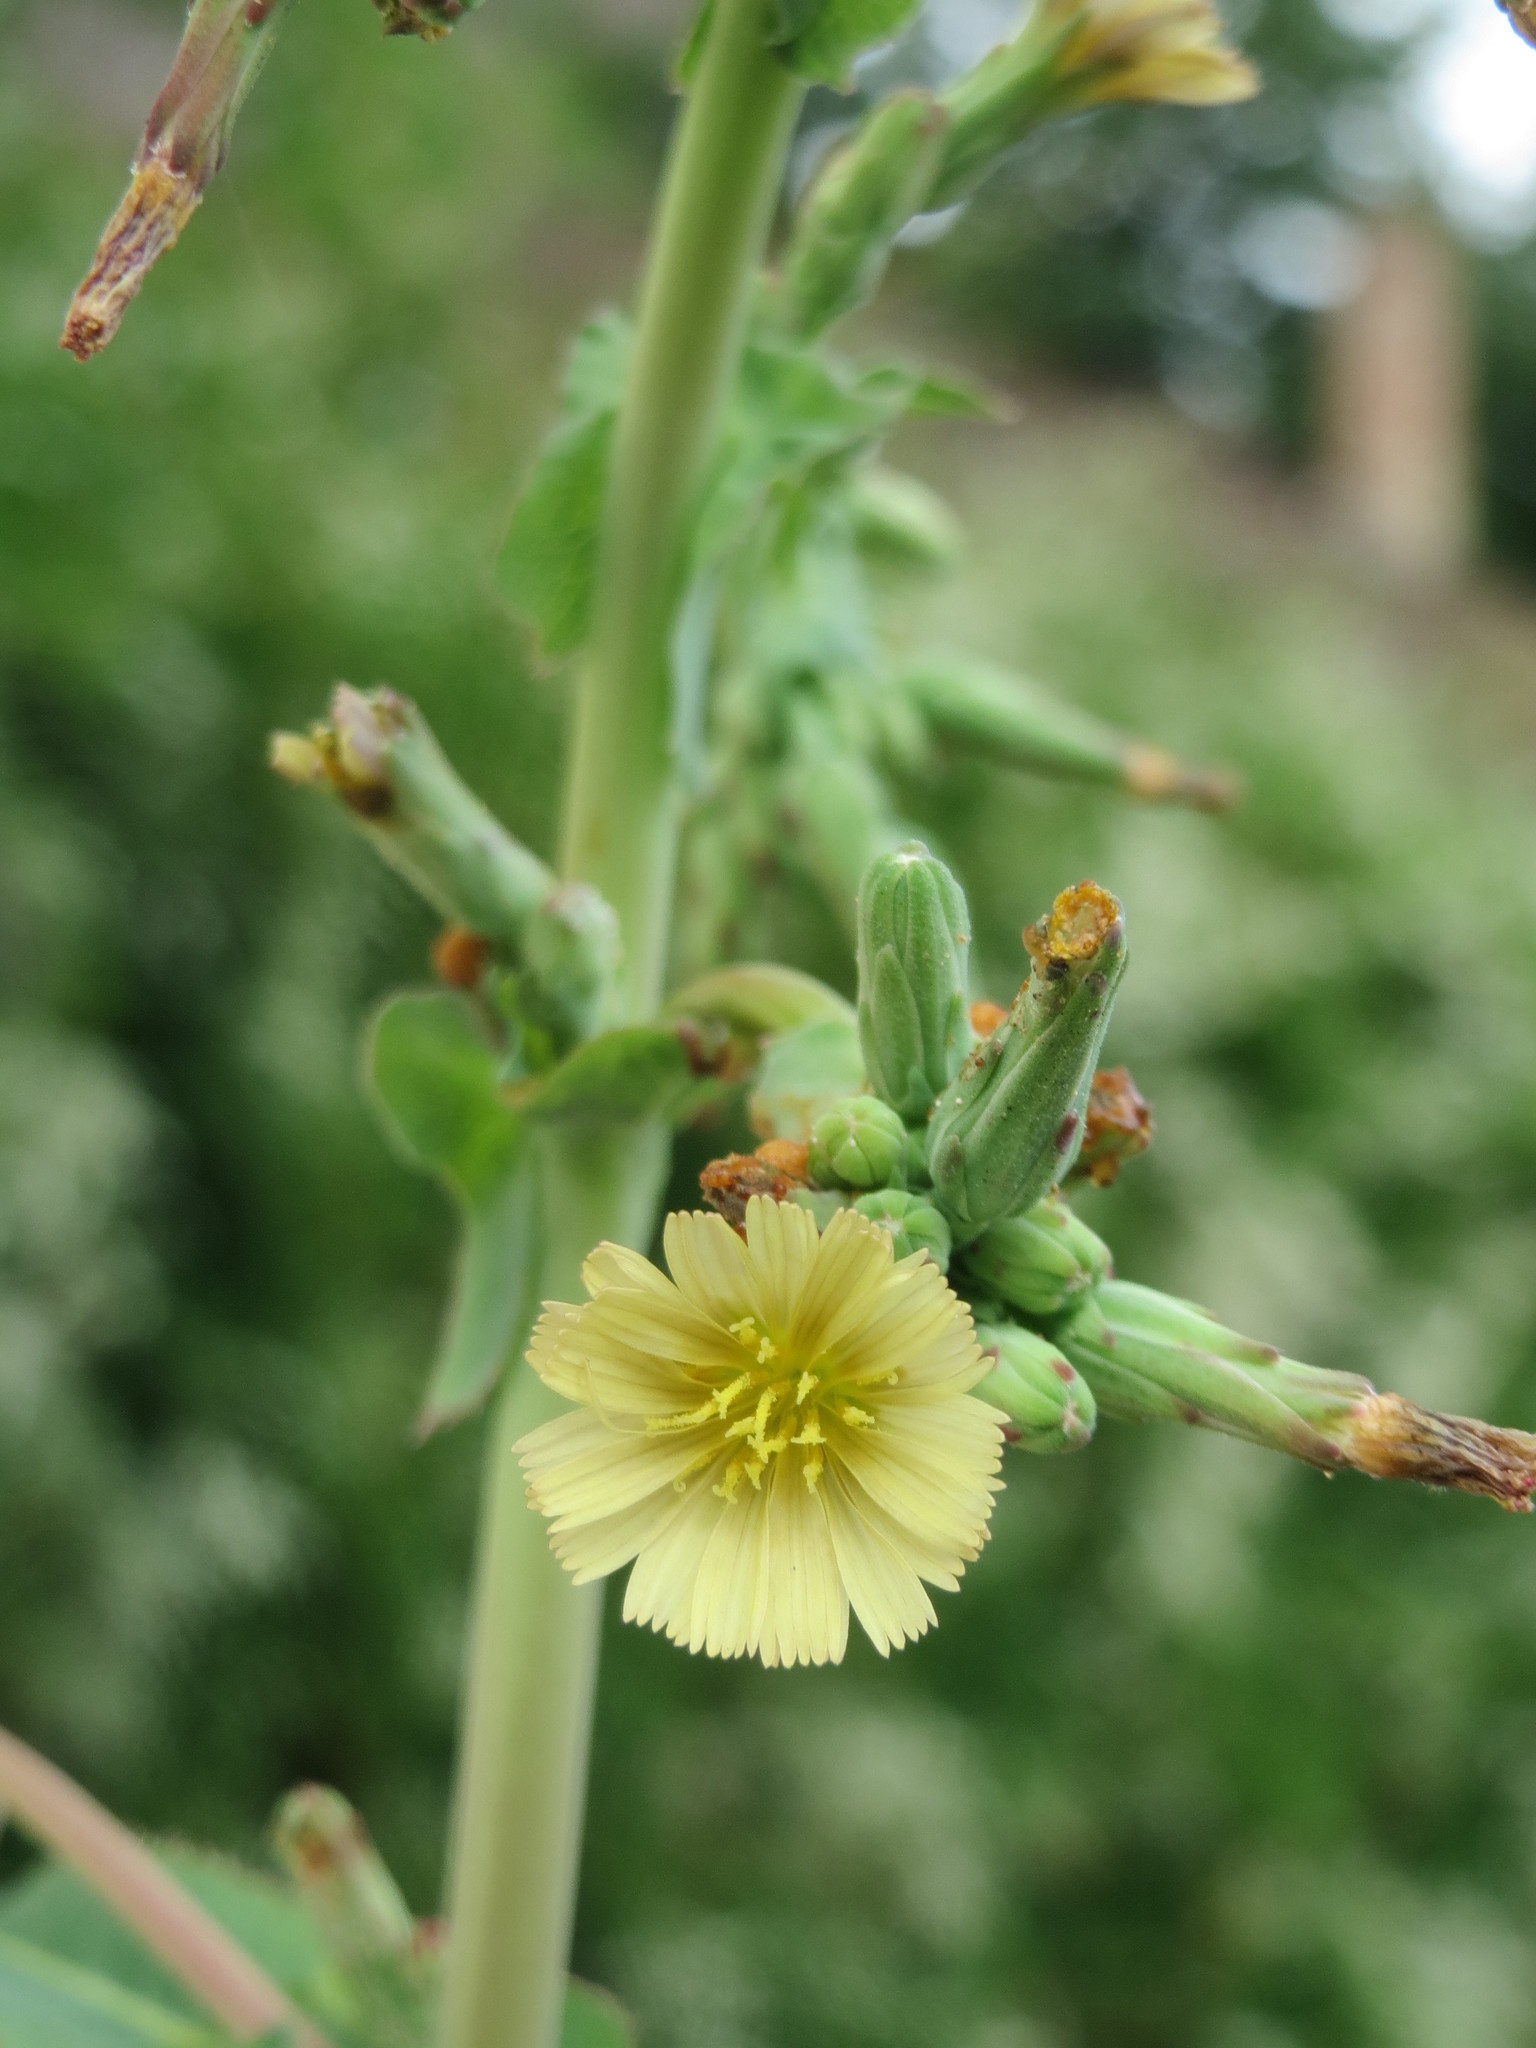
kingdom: Plantae
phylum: Tracheophyta
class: Magnoliopsida
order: Asterales
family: Asteraceae
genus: Lactuca
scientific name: Lactuca serriola
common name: Prickly lettuce
